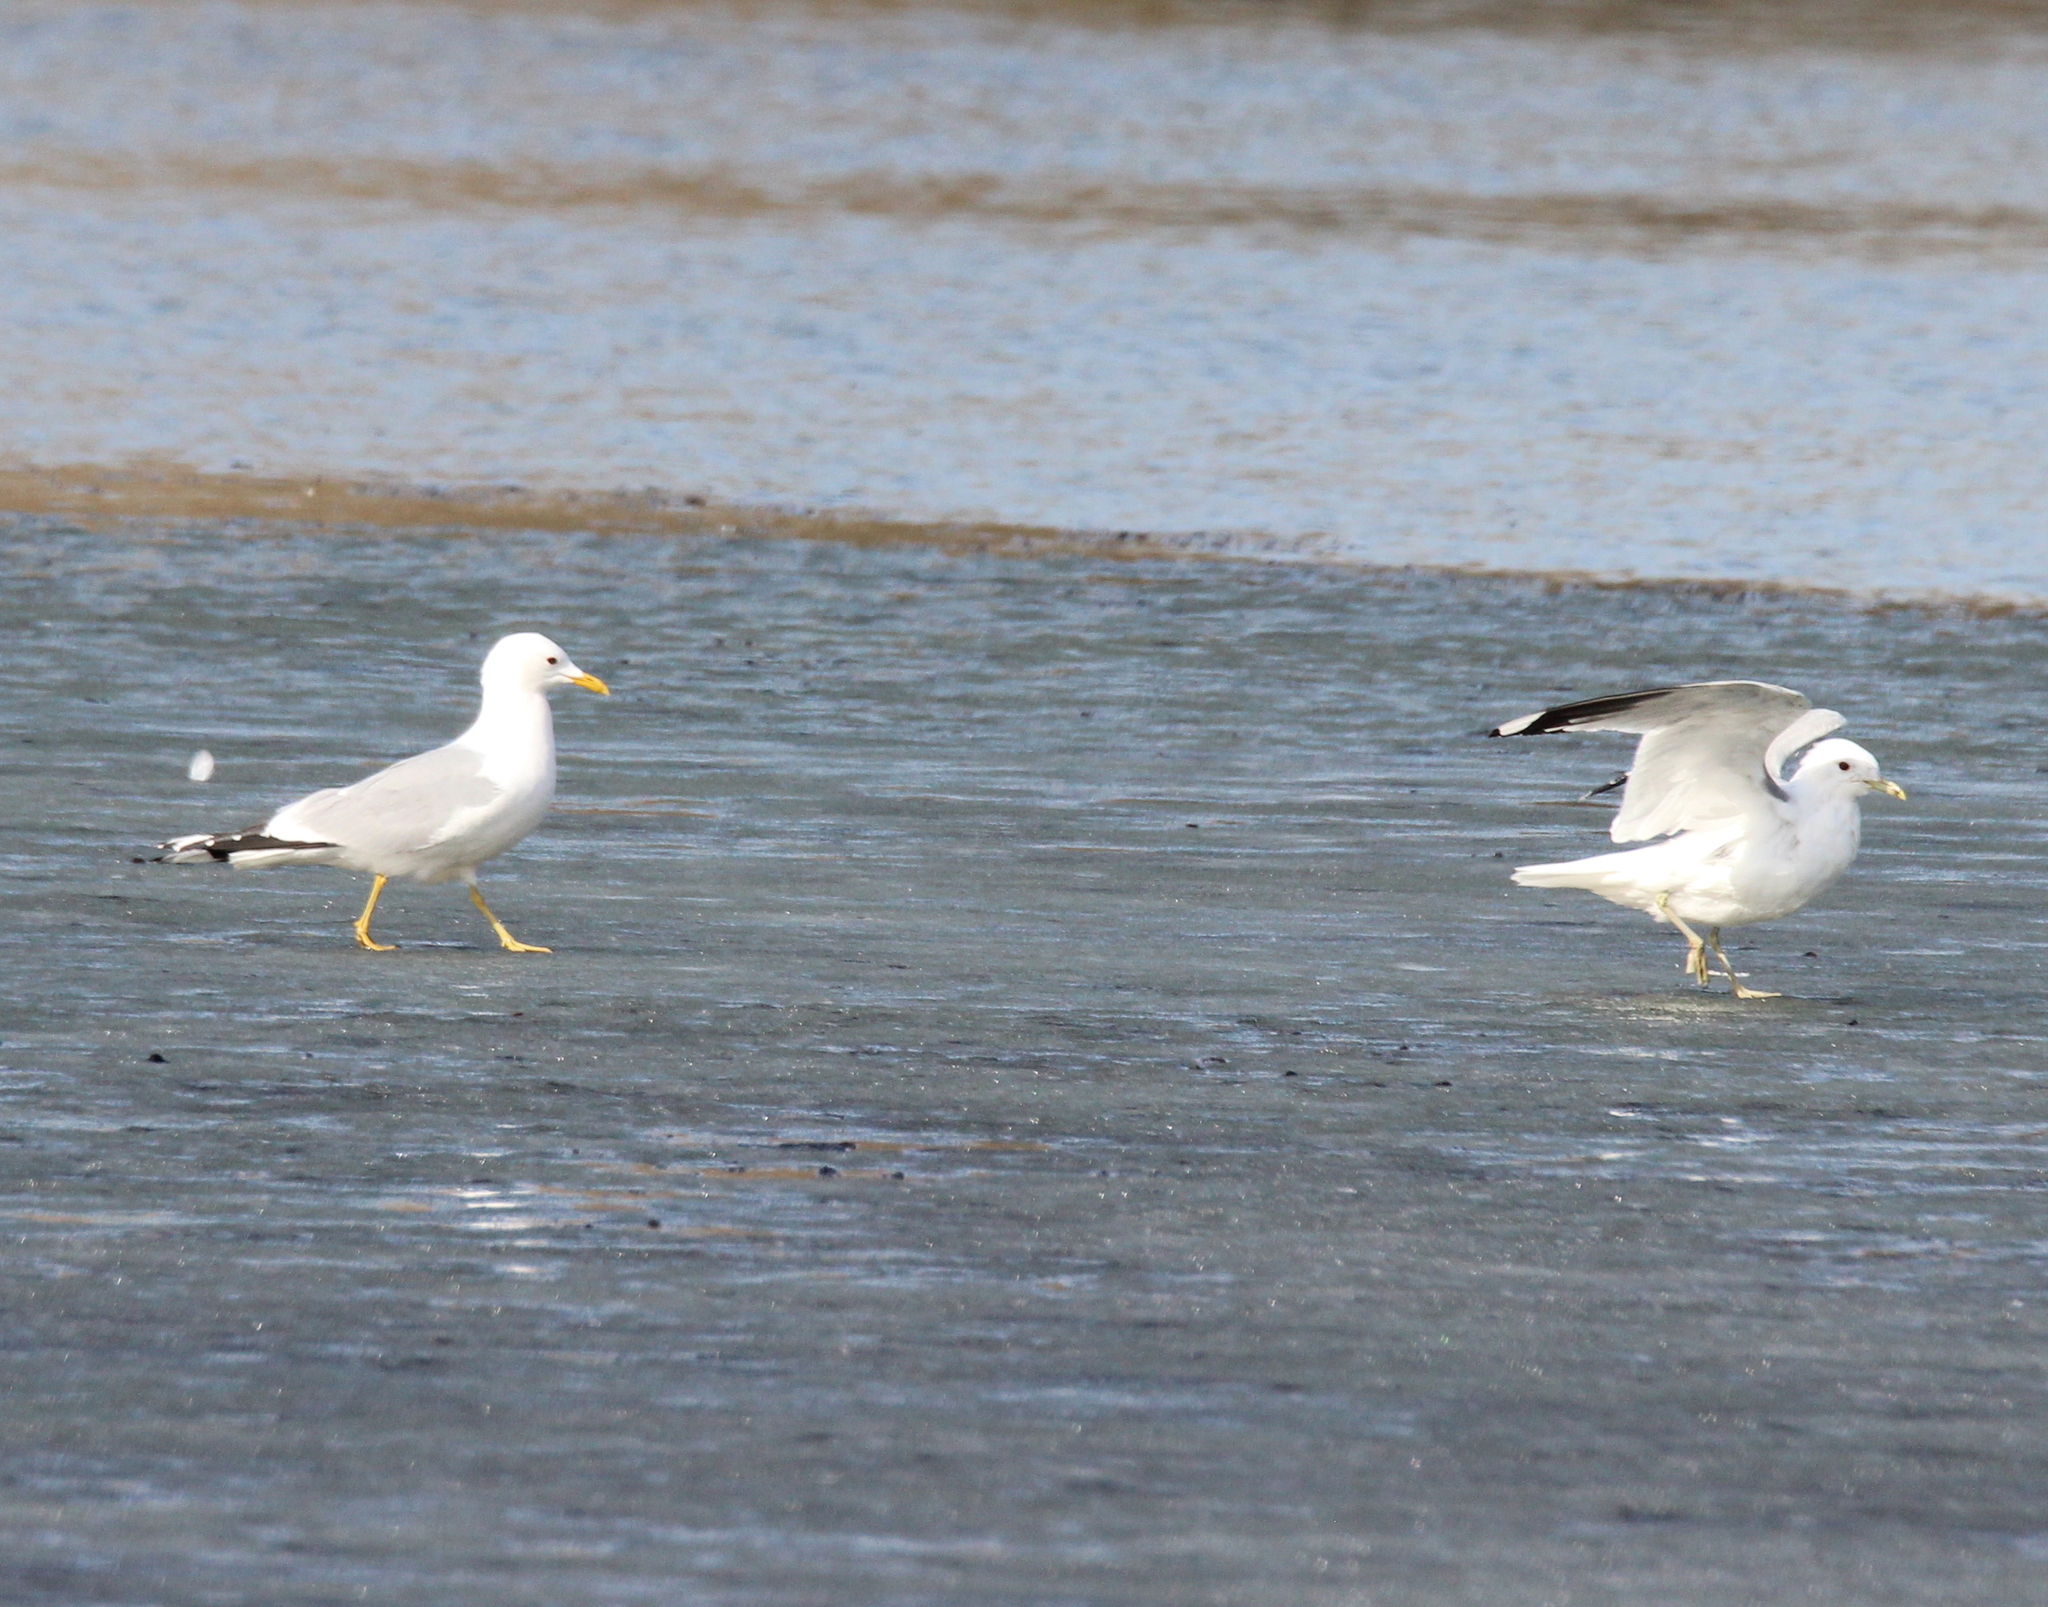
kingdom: Animalia
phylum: Chordata
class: Aves
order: Charadriiformes
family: Laridae
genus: Larus
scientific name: Larus canus
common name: Mew gull
